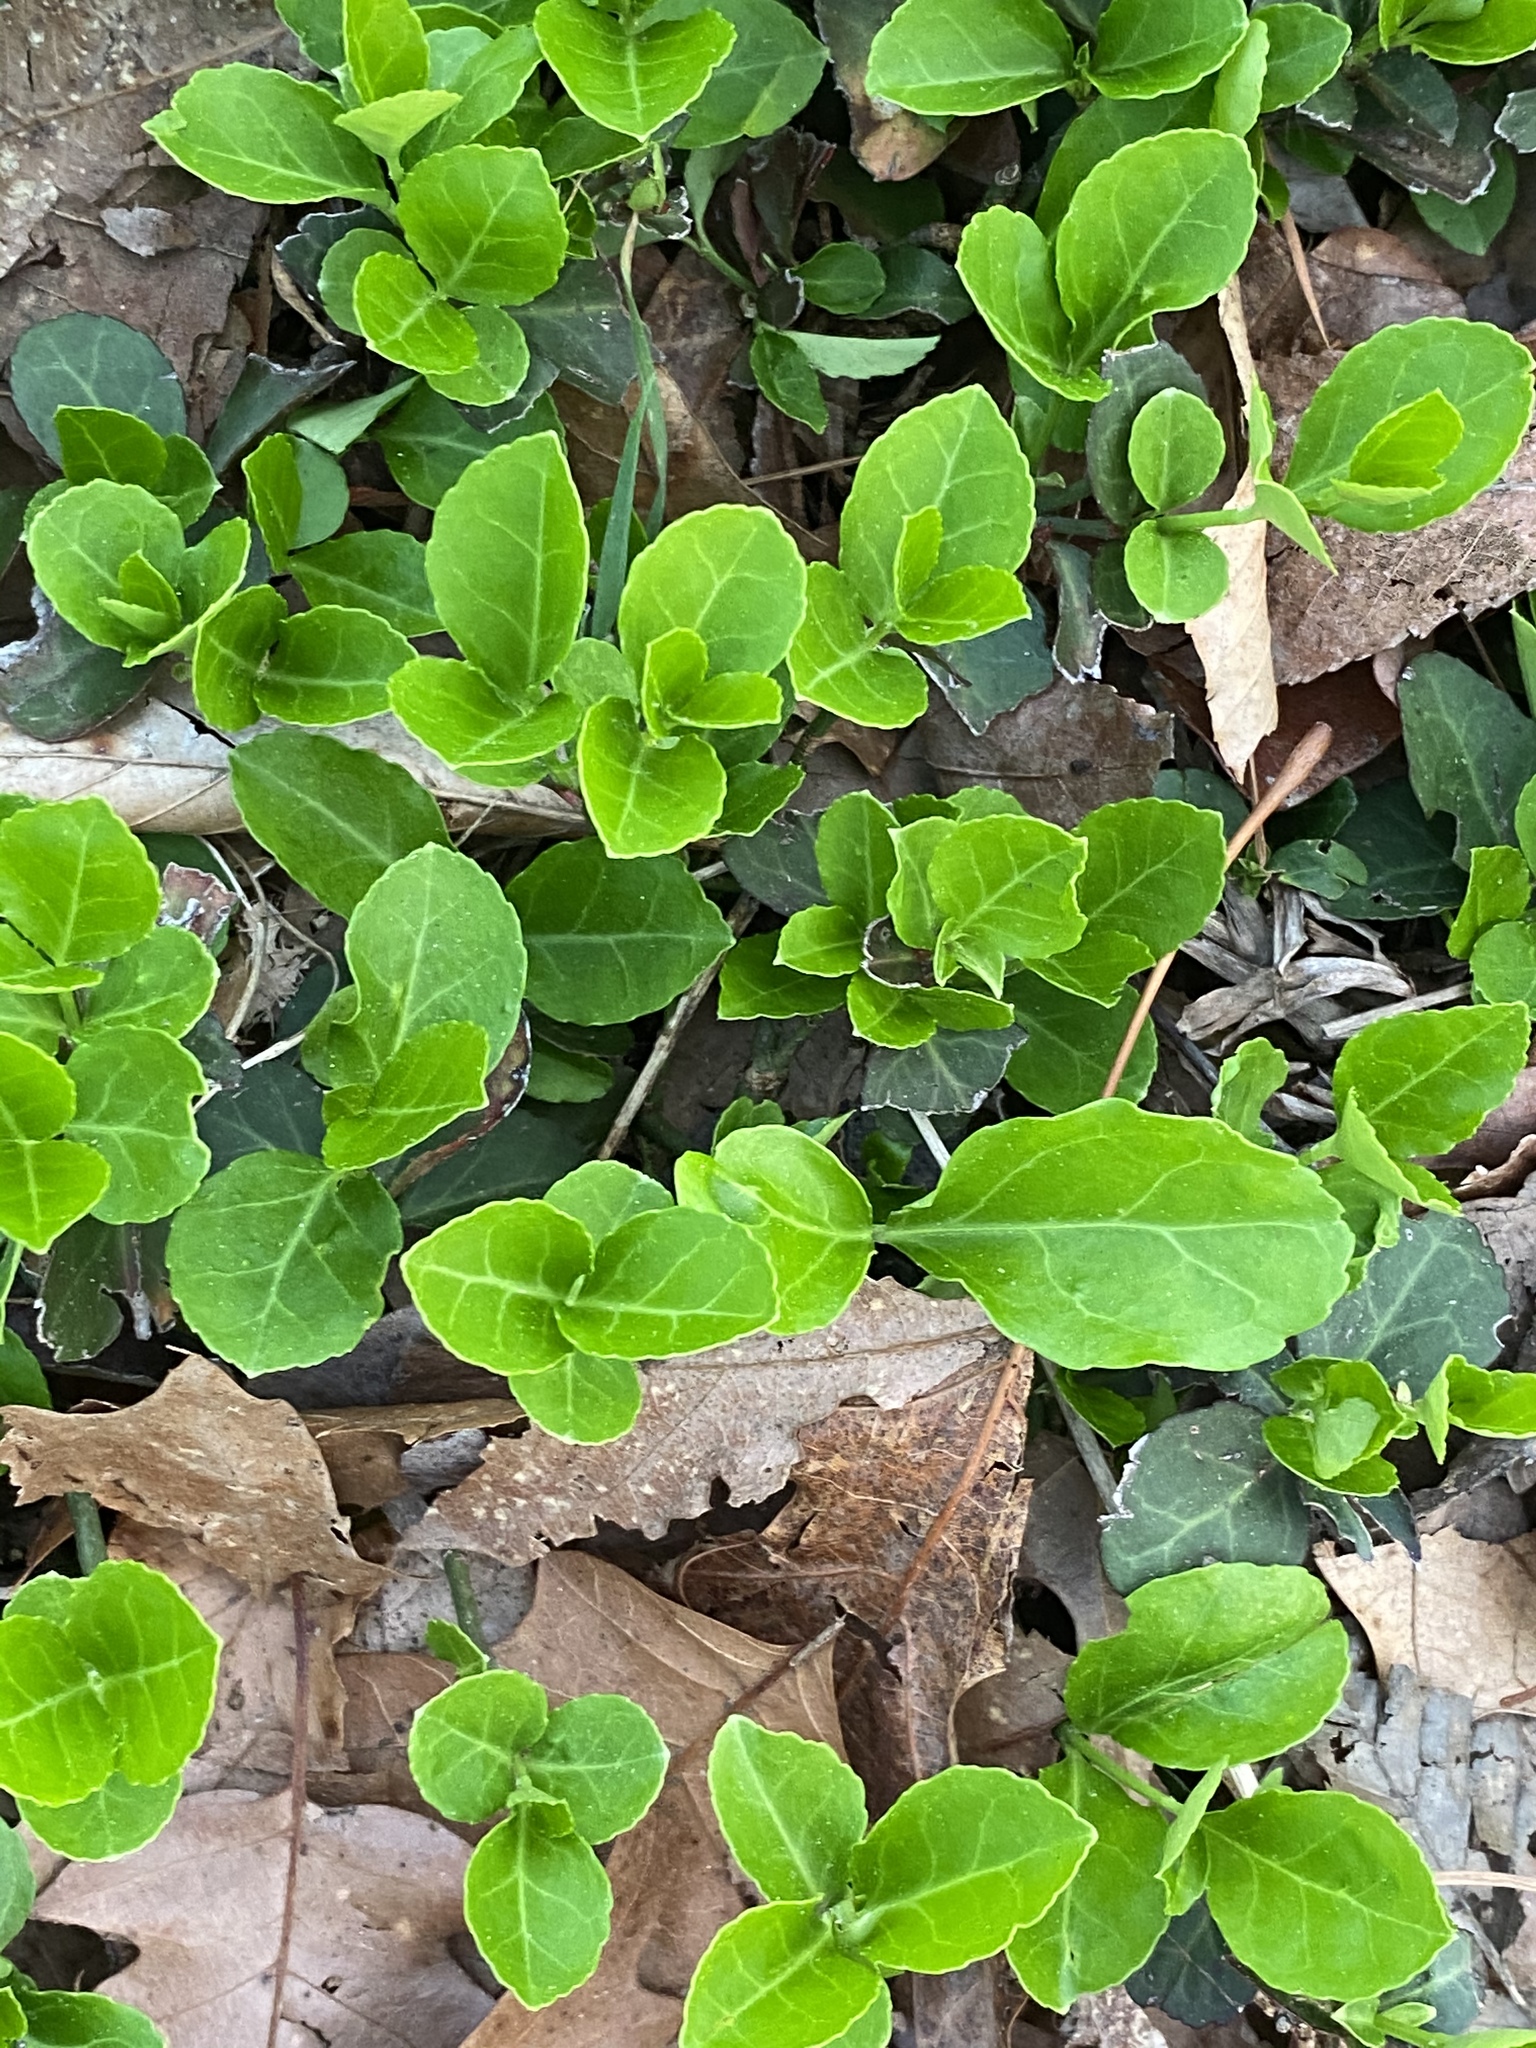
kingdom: Plantae
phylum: Tracheophyta
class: Magnoliopsida
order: Celastrales
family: Celastraceae
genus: Euonymus
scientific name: Euonymus fortunei
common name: Climbing euonymus
